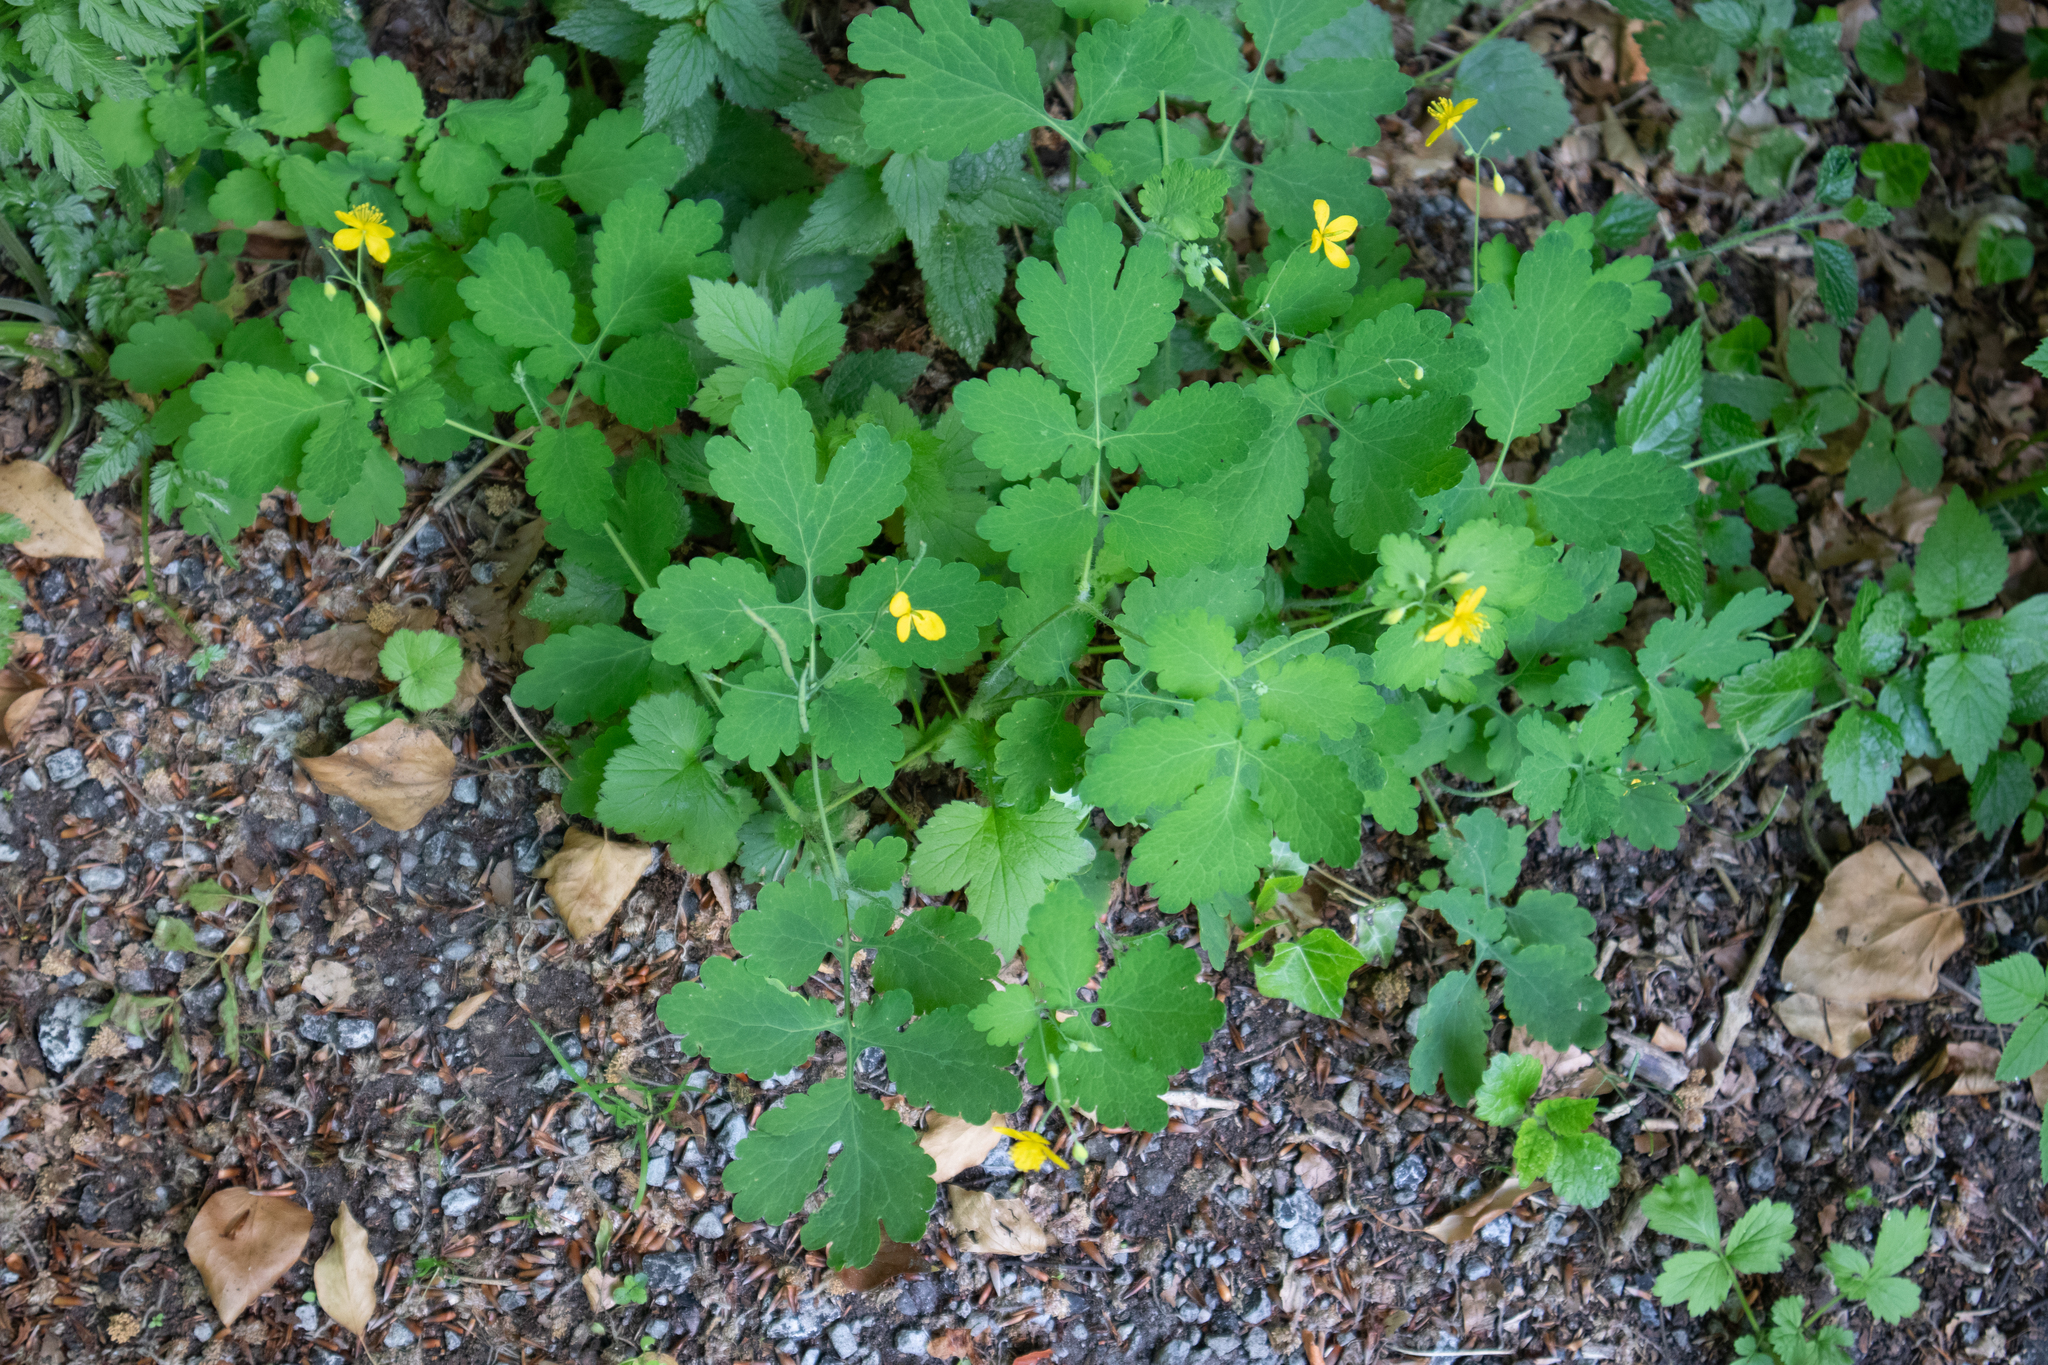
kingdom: Plantae
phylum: Tracheophyta
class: Magnoliopsida
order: Ranunculales
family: Papaveraceae
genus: Chelidonium
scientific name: Chelidonium majus
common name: Greater celandine
